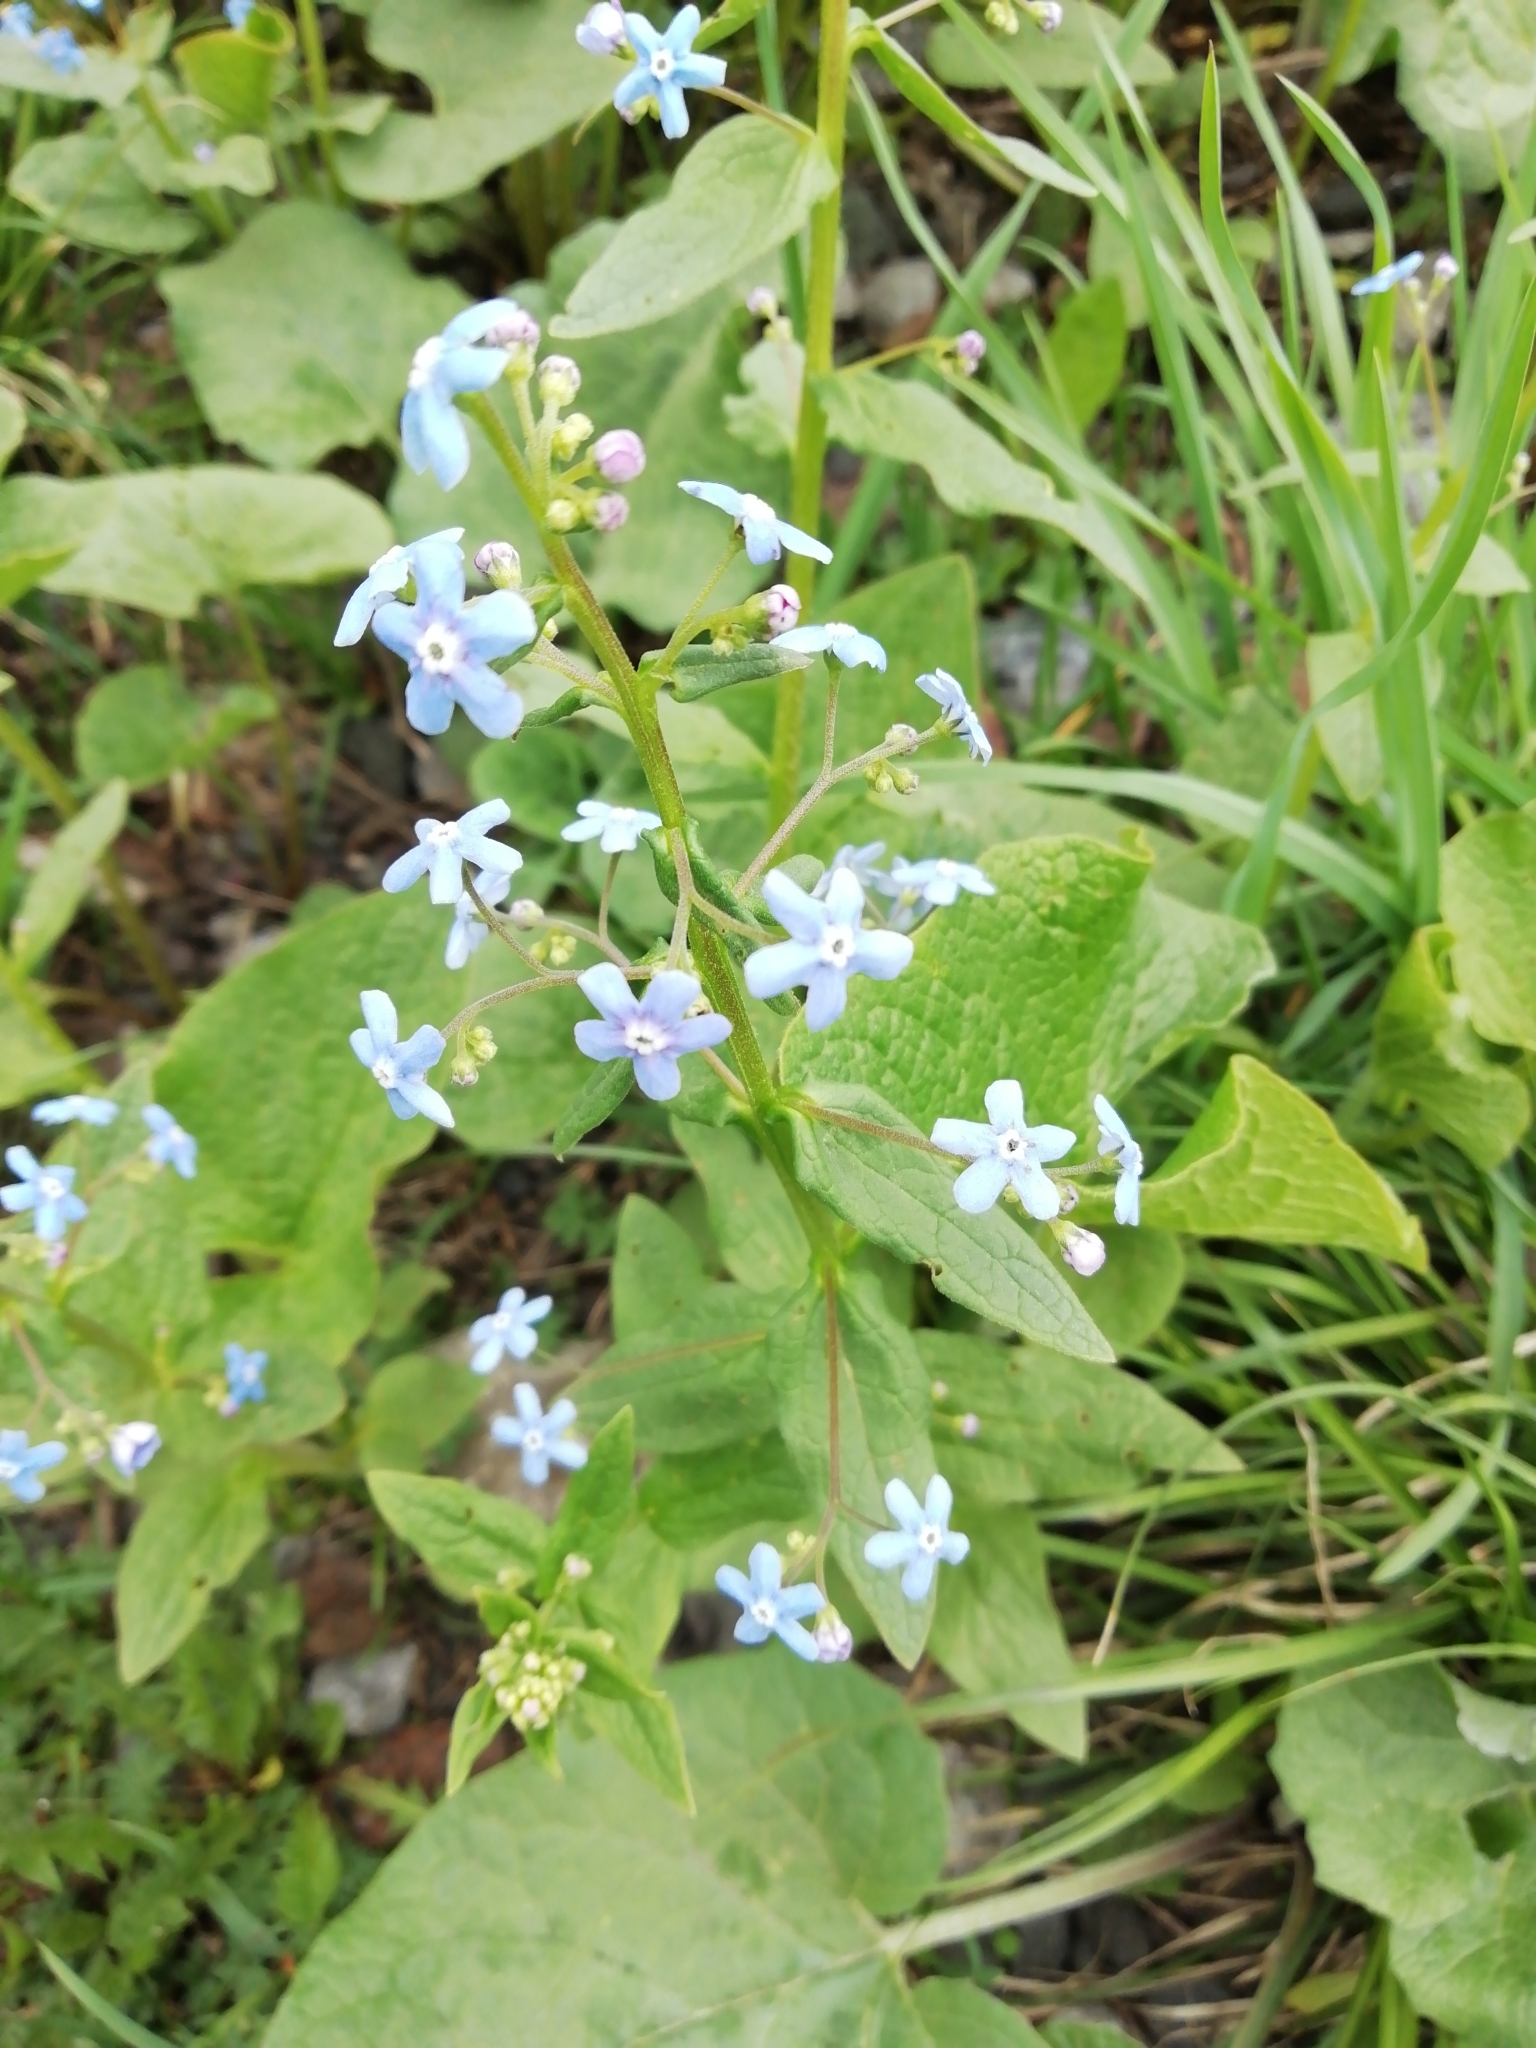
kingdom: Plantae
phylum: Tracheophyta
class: Magnoliopsida
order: Boraginales
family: Boraginaceae
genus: Brunnera
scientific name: Brunnera sibirica
